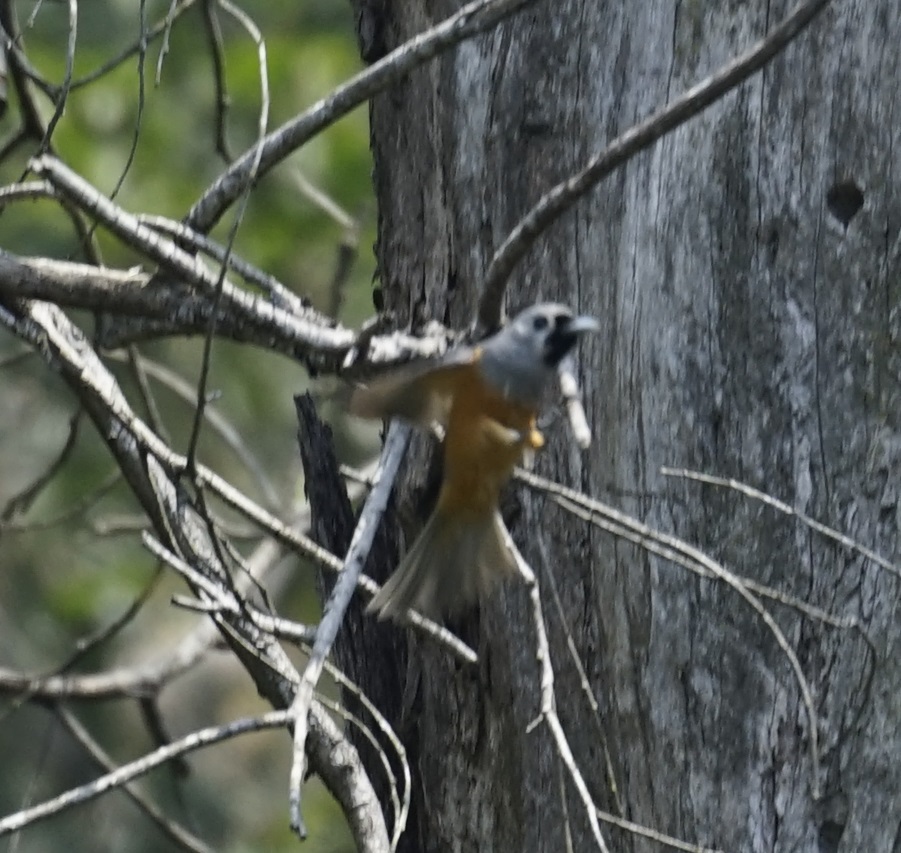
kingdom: Animalia
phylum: Chordata
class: Aves
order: Passeriformes
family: Monarchidae
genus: Monarcha
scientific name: Monarcha melanopsis
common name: Black-faced monarch
